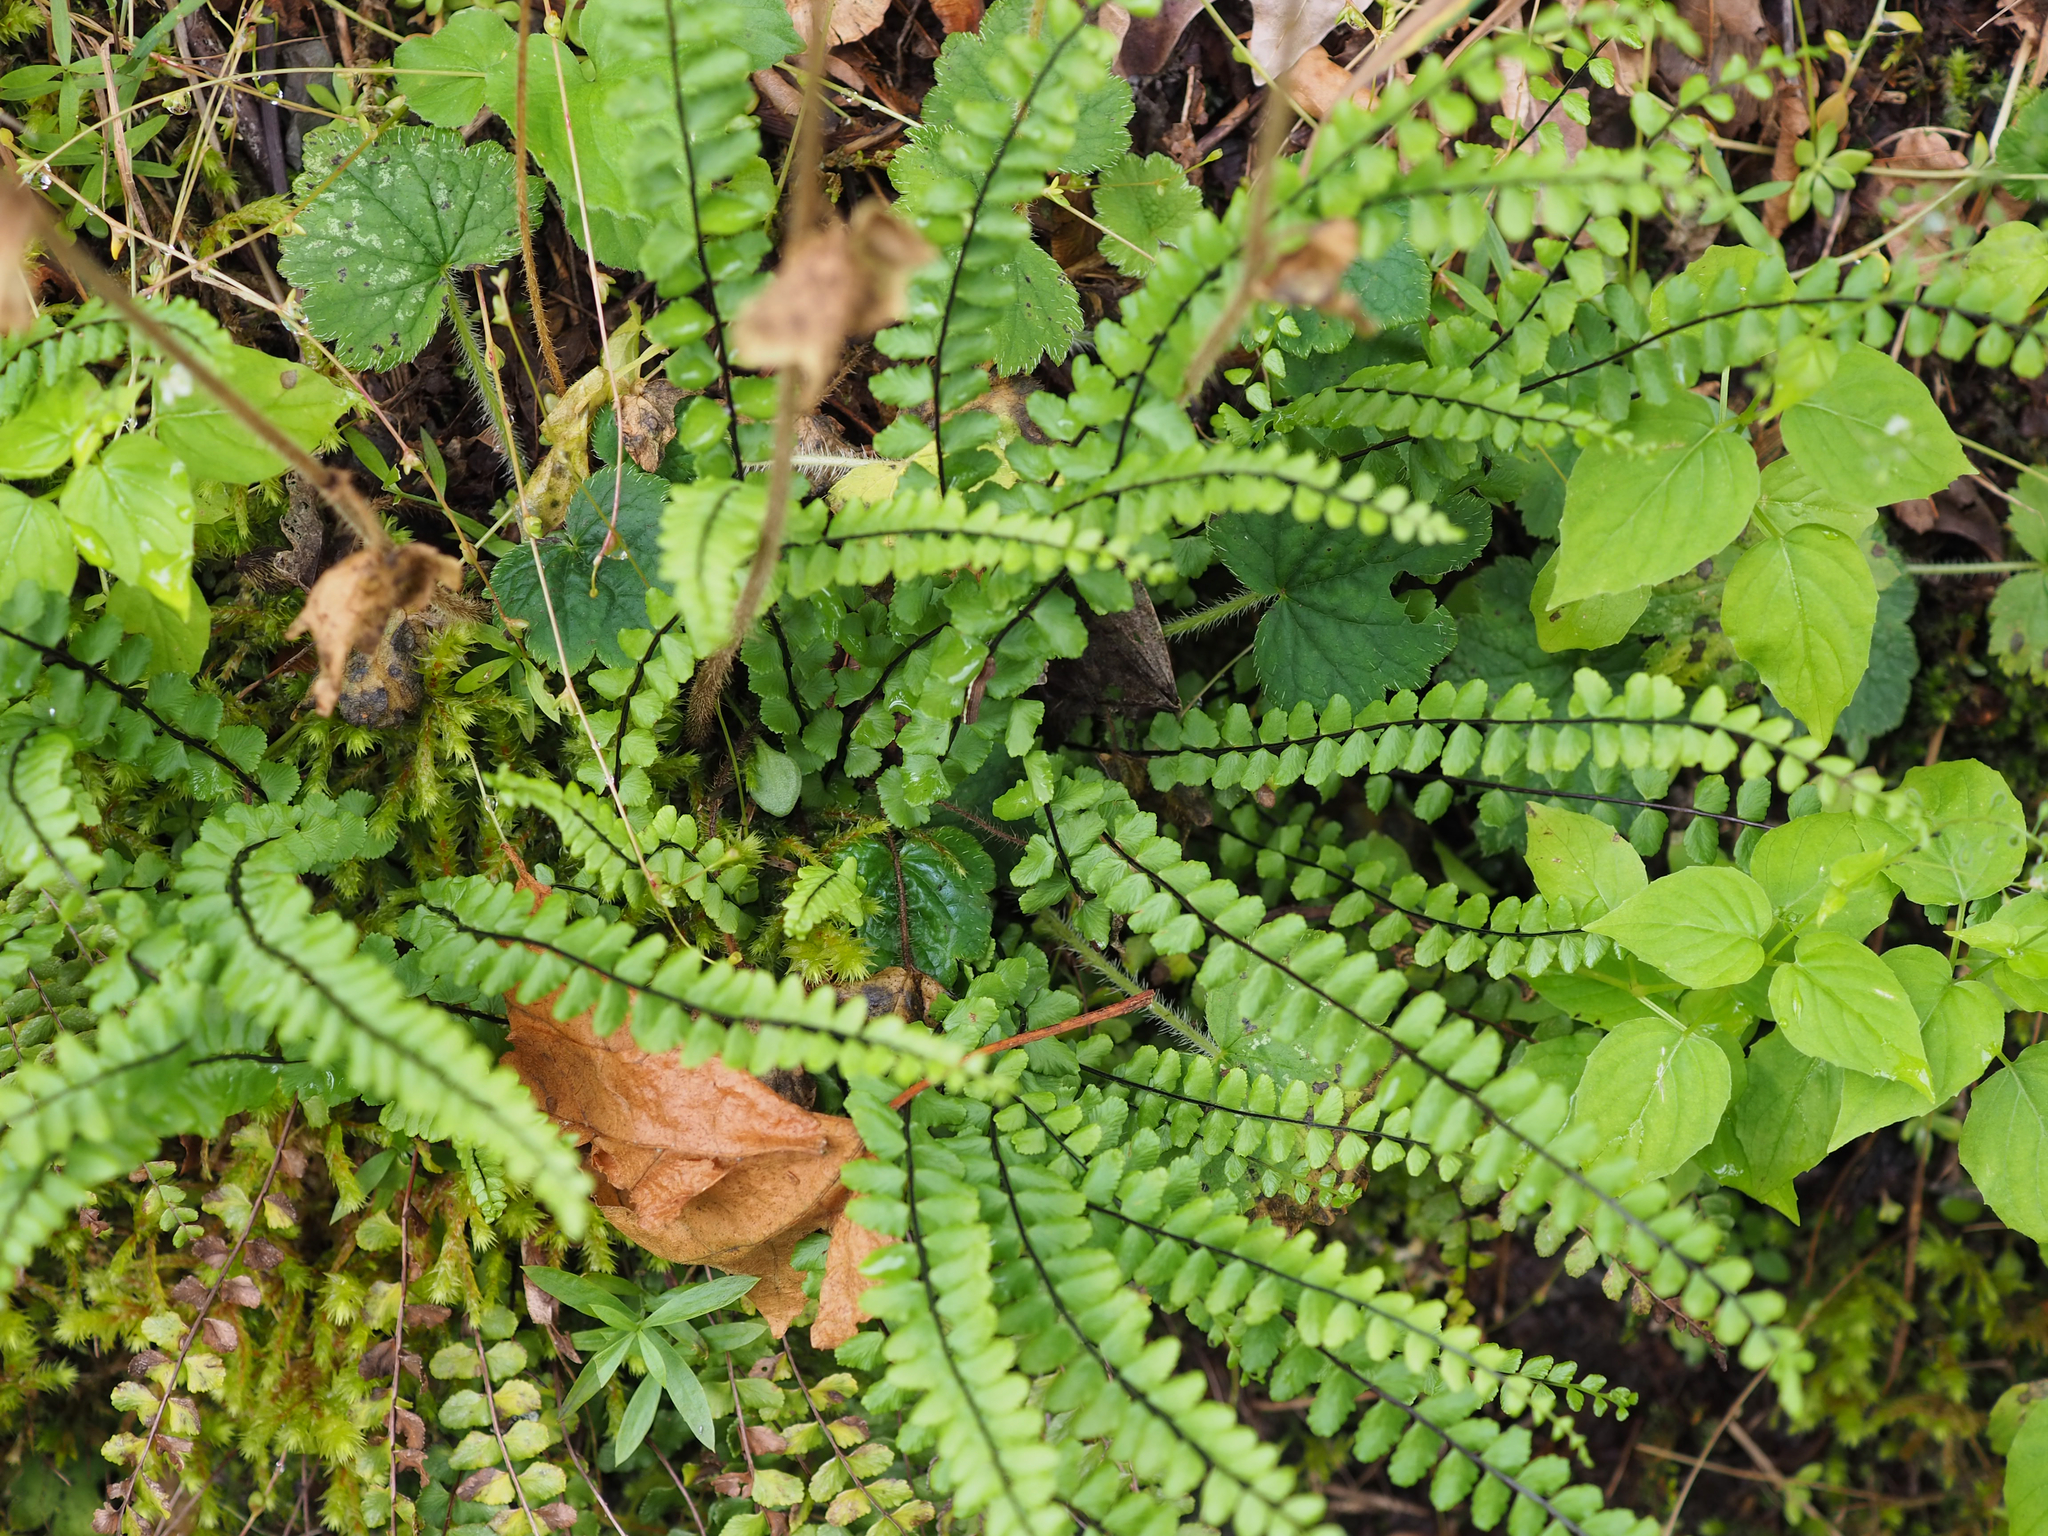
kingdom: Plantae
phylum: Tracheophyta
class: Polypodiopsida
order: Polypodiales
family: Aspleniaceae
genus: Asplenium
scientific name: Asplenium trichomanes
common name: Maidenhair spleenwort
